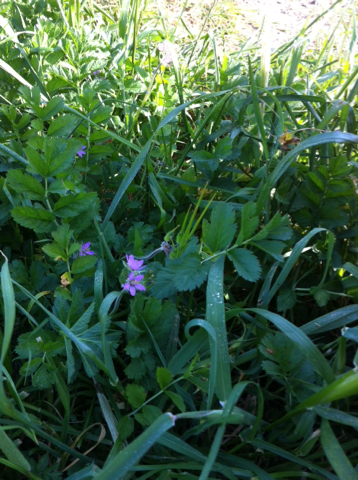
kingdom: Plantae
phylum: Tracheophyta
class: Magnoliopsida
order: Geraniales
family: Geraniaceae
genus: Erodium
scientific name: Erodium moschatum
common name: Musk stork's-bill
